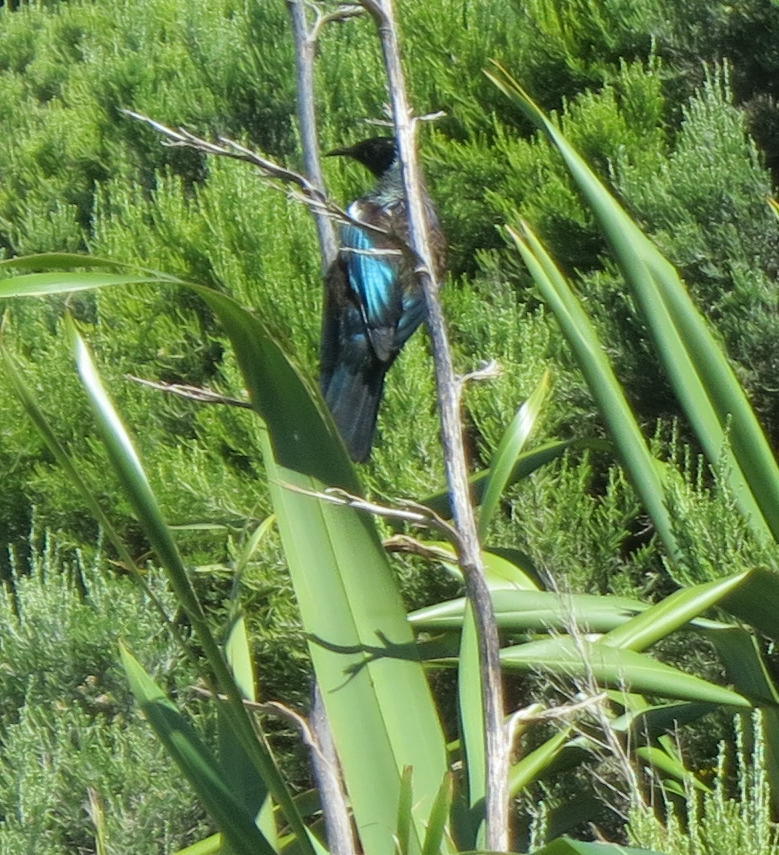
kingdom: Animalia
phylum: Chordata
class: Aves
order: Passeriformes
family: Meliphagidae
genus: Prosthemadera
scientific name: Prosthemadera novaeseelandiae
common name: Tui
